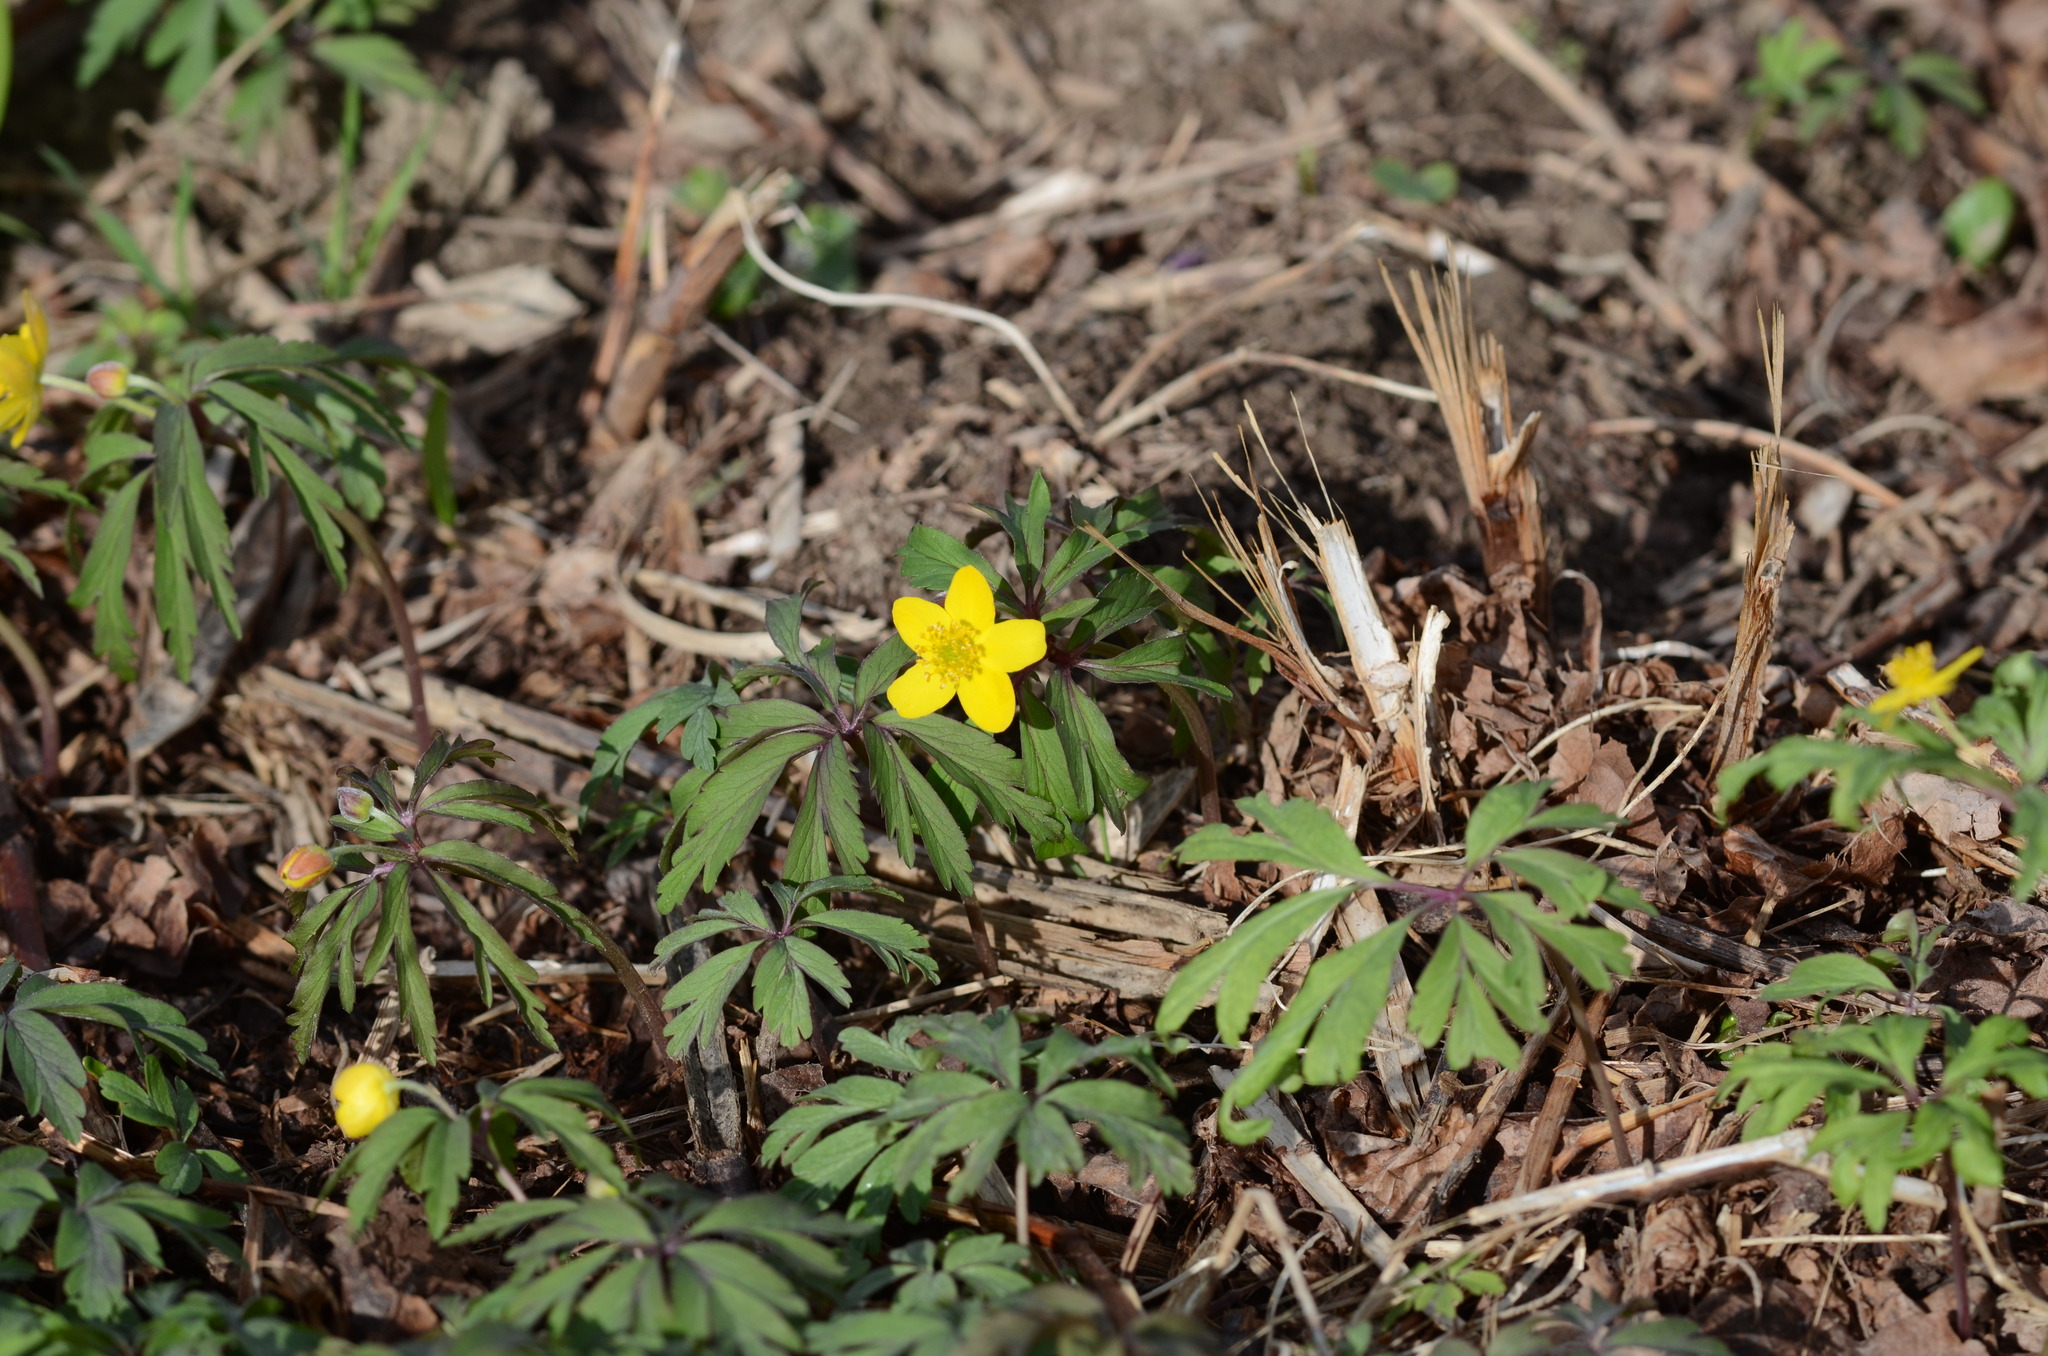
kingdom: Plantae
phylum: Tracheophyta
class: Magnoliopsida
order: Ranunculales
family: Ranunculaceae
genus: Anemone
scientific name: Anemone ranunculoides
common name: Yellow anemone
